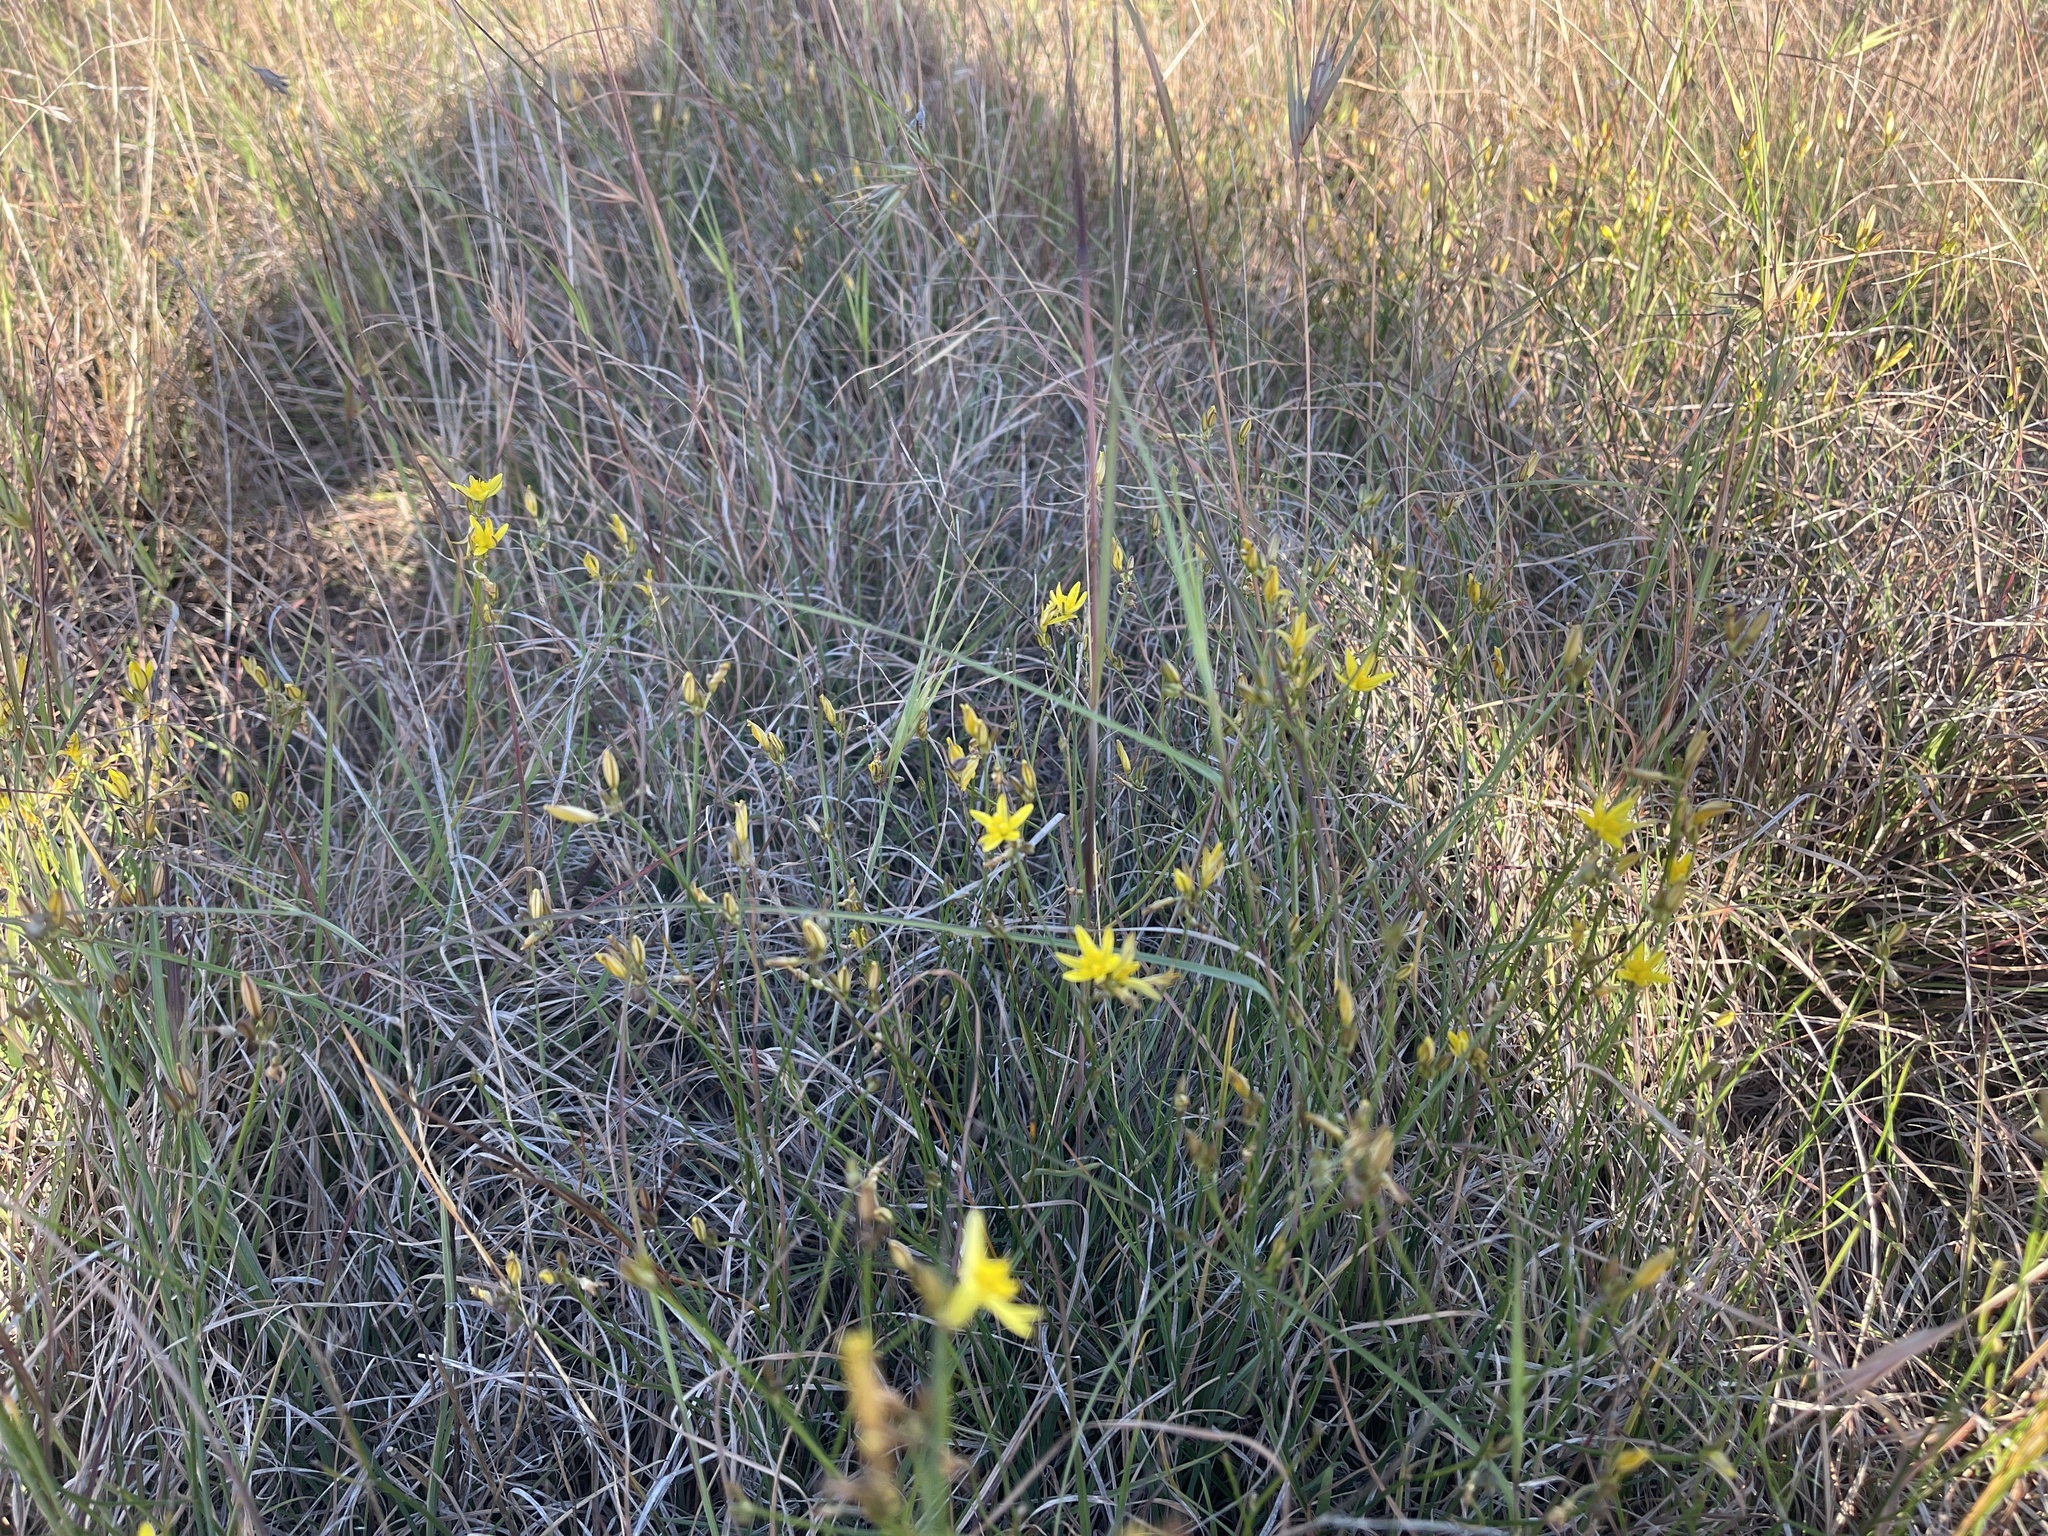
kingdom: Plantae
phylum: Tracheophyta
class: Liliopsida
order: Asparagales
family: Asphodelaceae
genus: Tricoryne
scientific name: Tricoryne elatior
